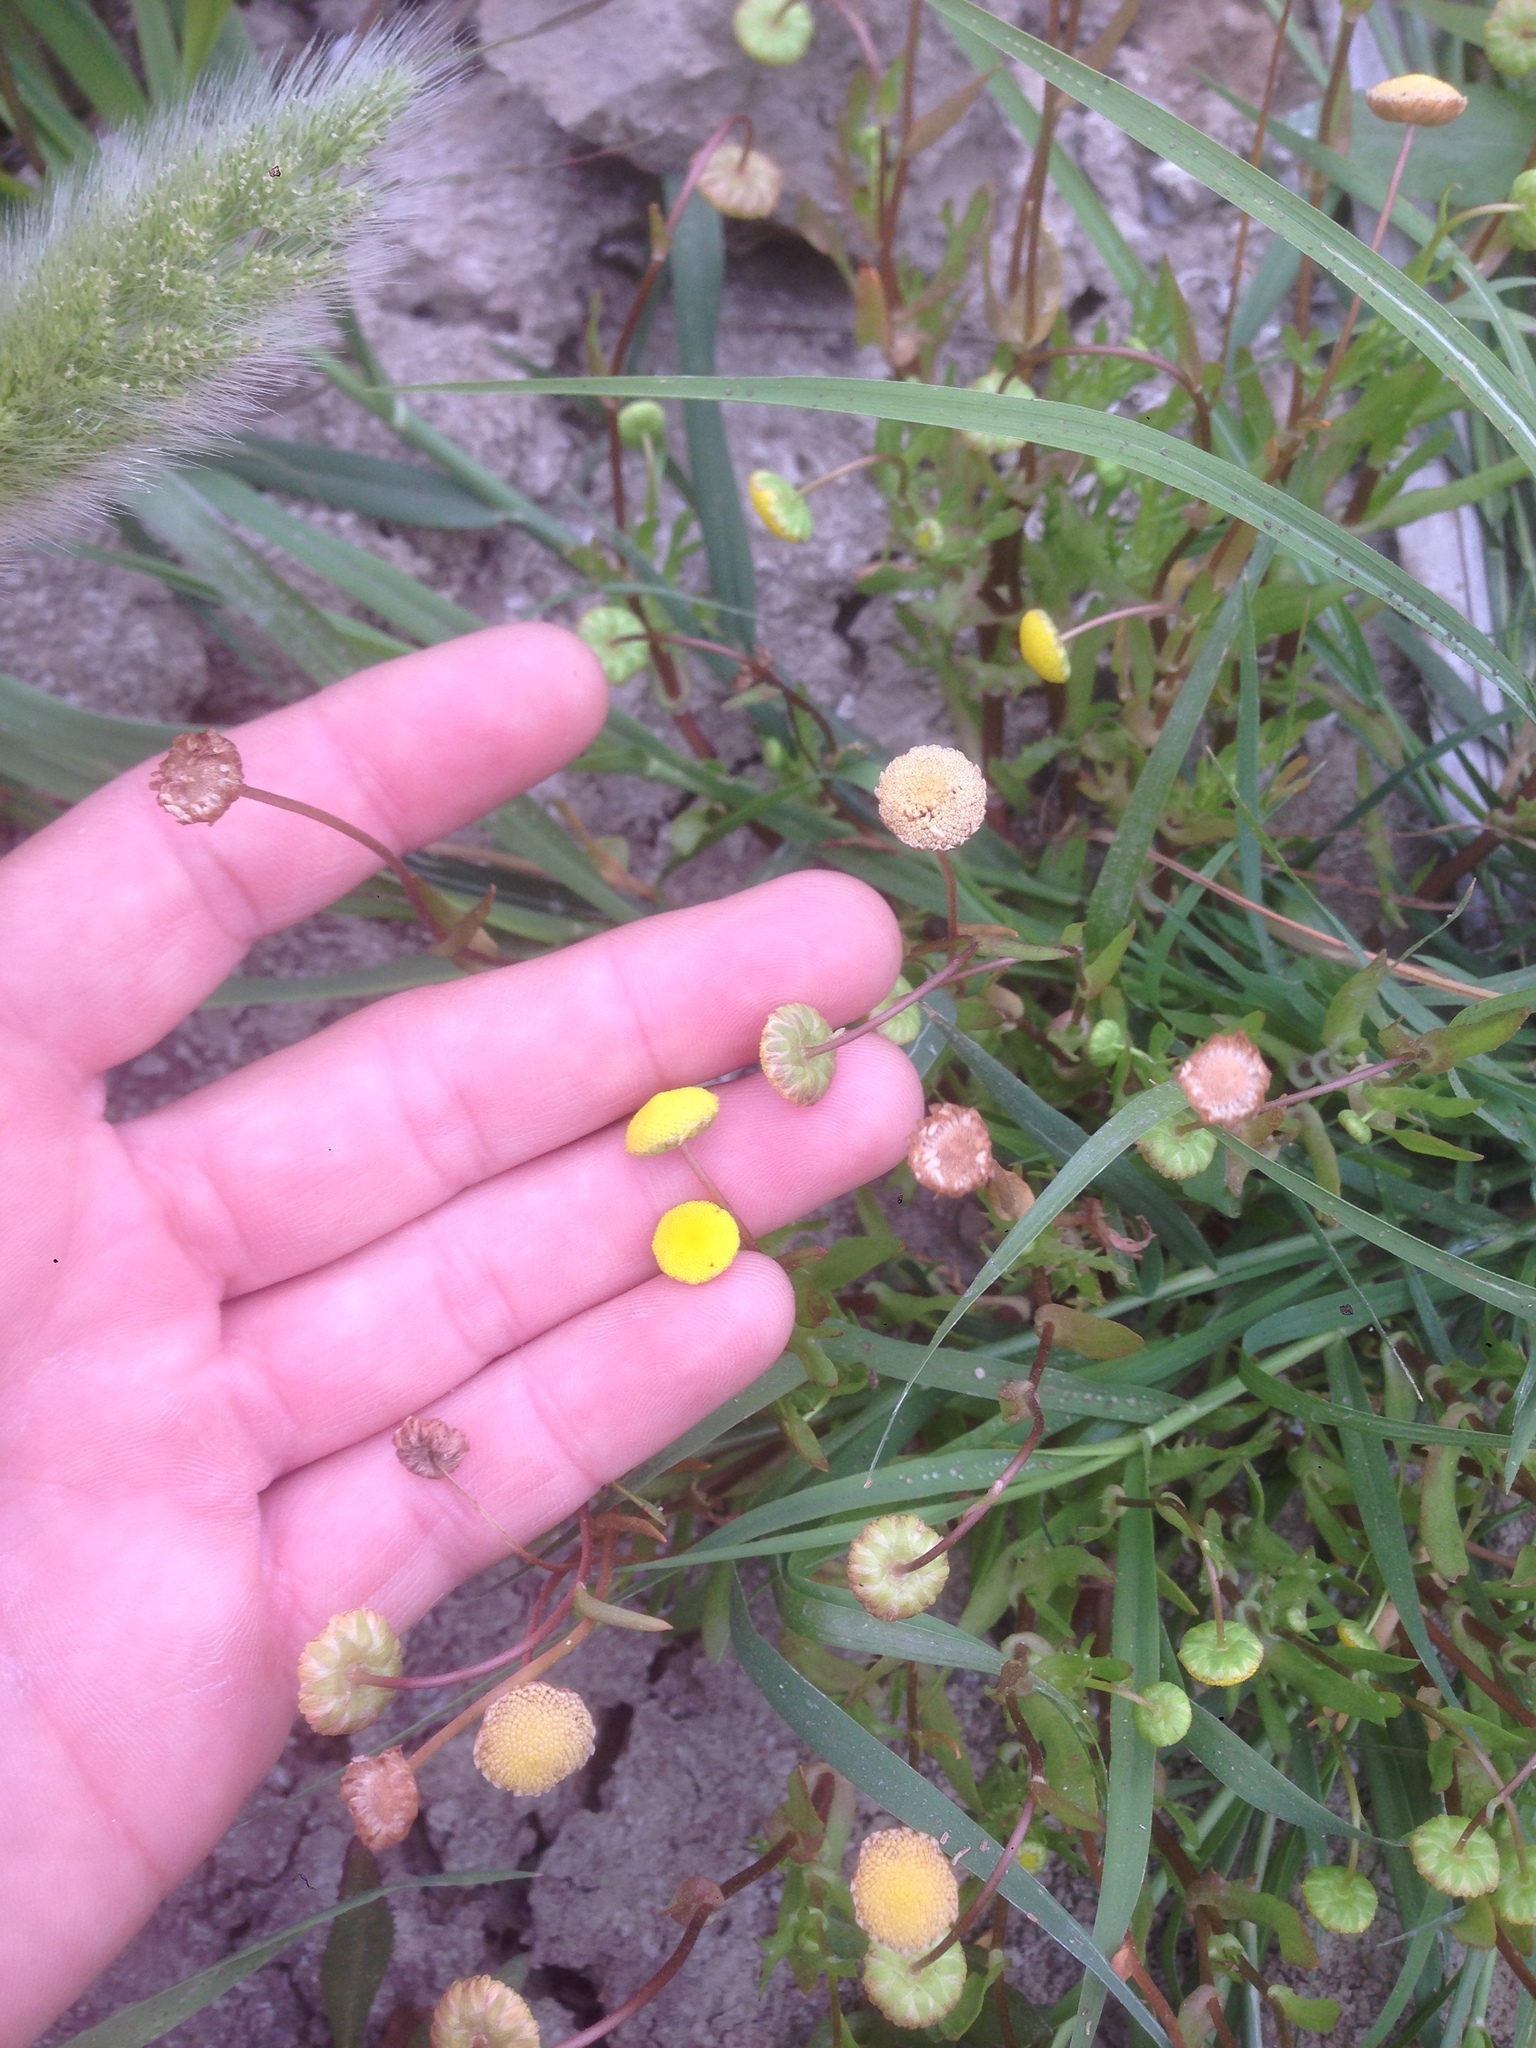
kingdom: Plantae
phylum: Tracheophyta
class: Magnoliopsida
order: Asterales
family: Asteraceae
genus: Cotula
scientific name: Cotula coronopifolia
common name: Buttonweed
